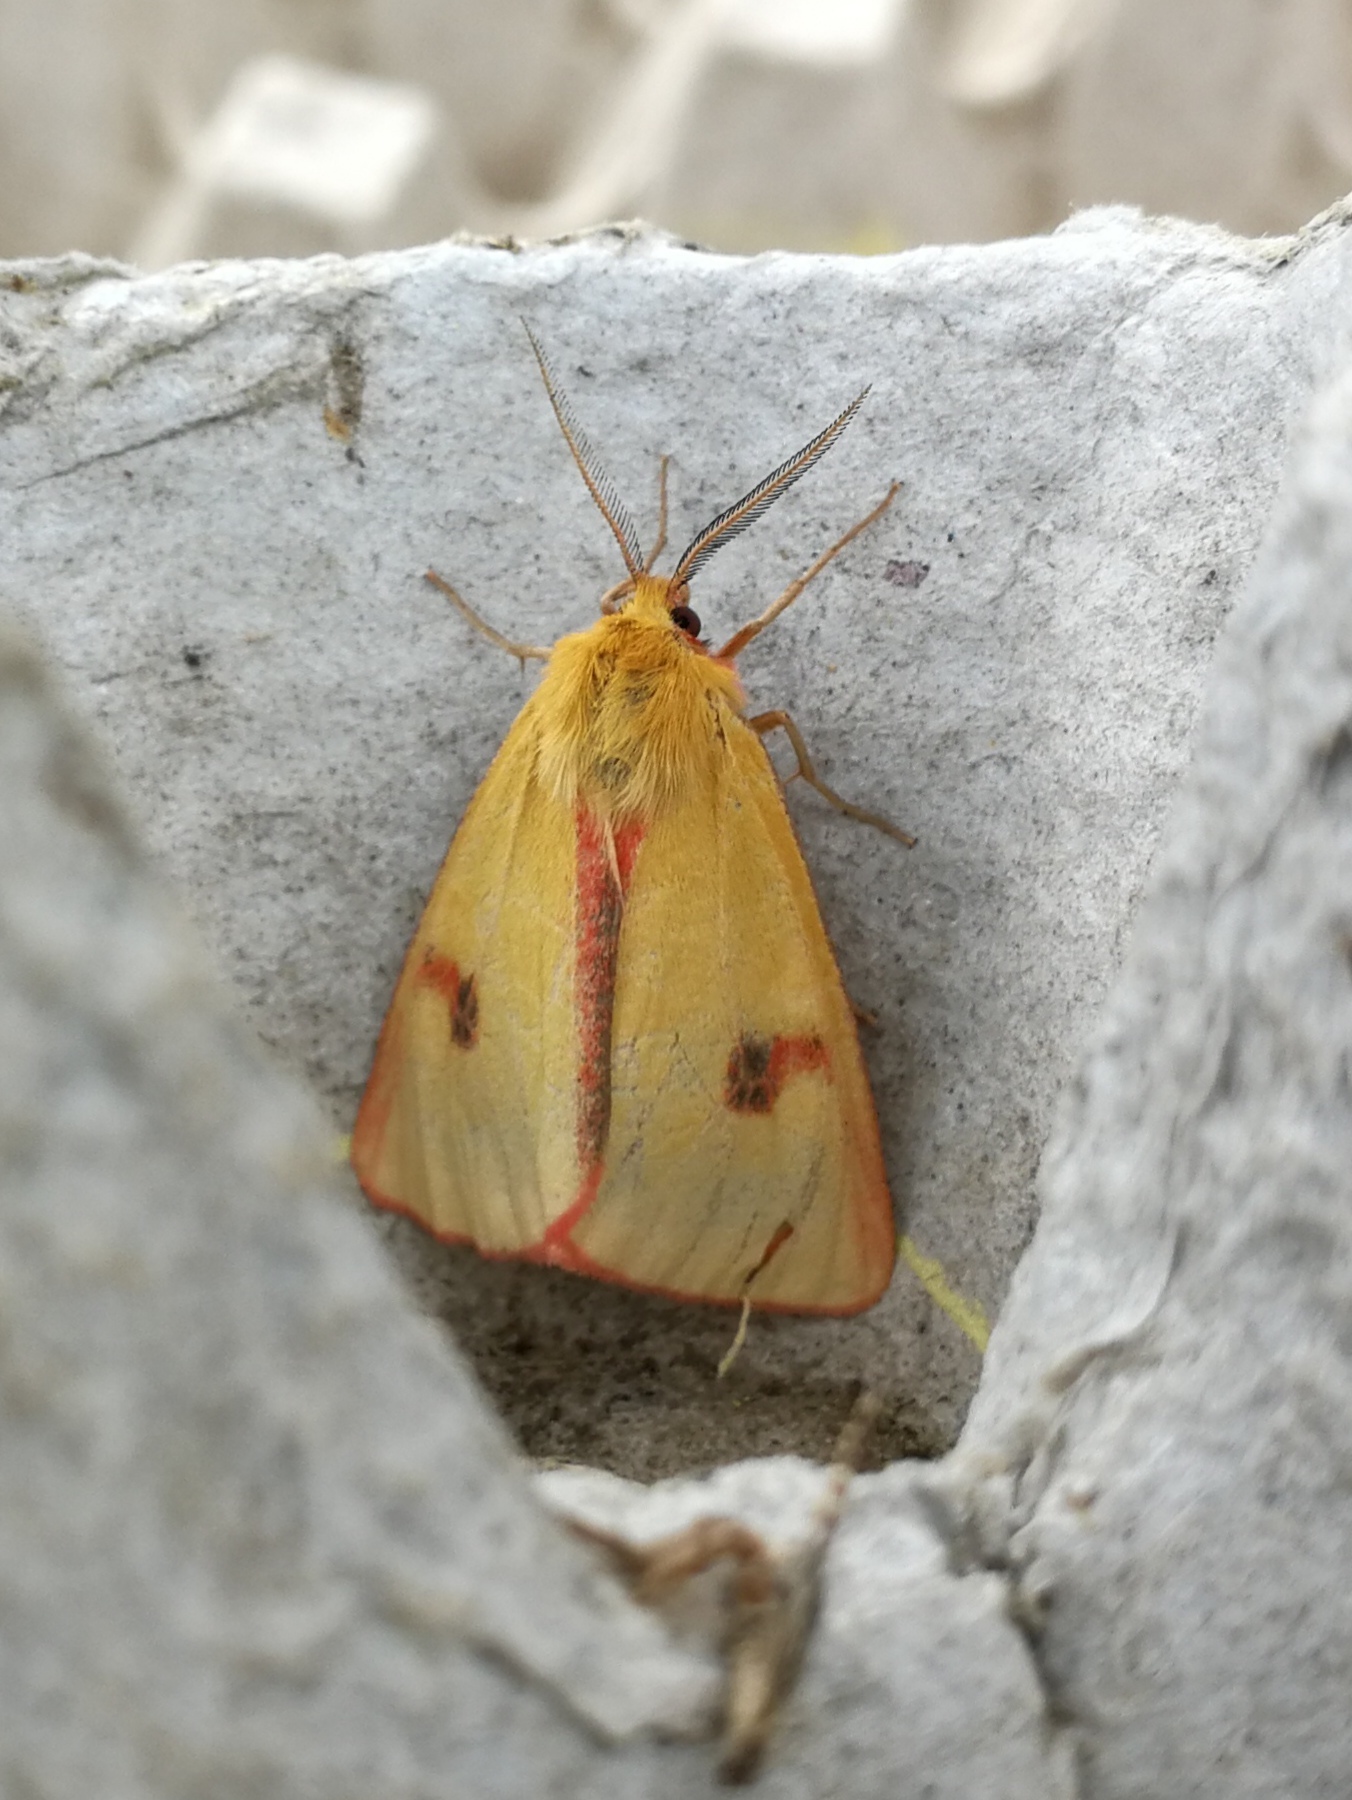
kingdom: Animalia
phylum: Arthropoda
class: Insecta
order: Lepidoptera
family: Erebidae
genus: Diacrisia
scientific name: Diacrisia sannio
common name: Clouded buff
